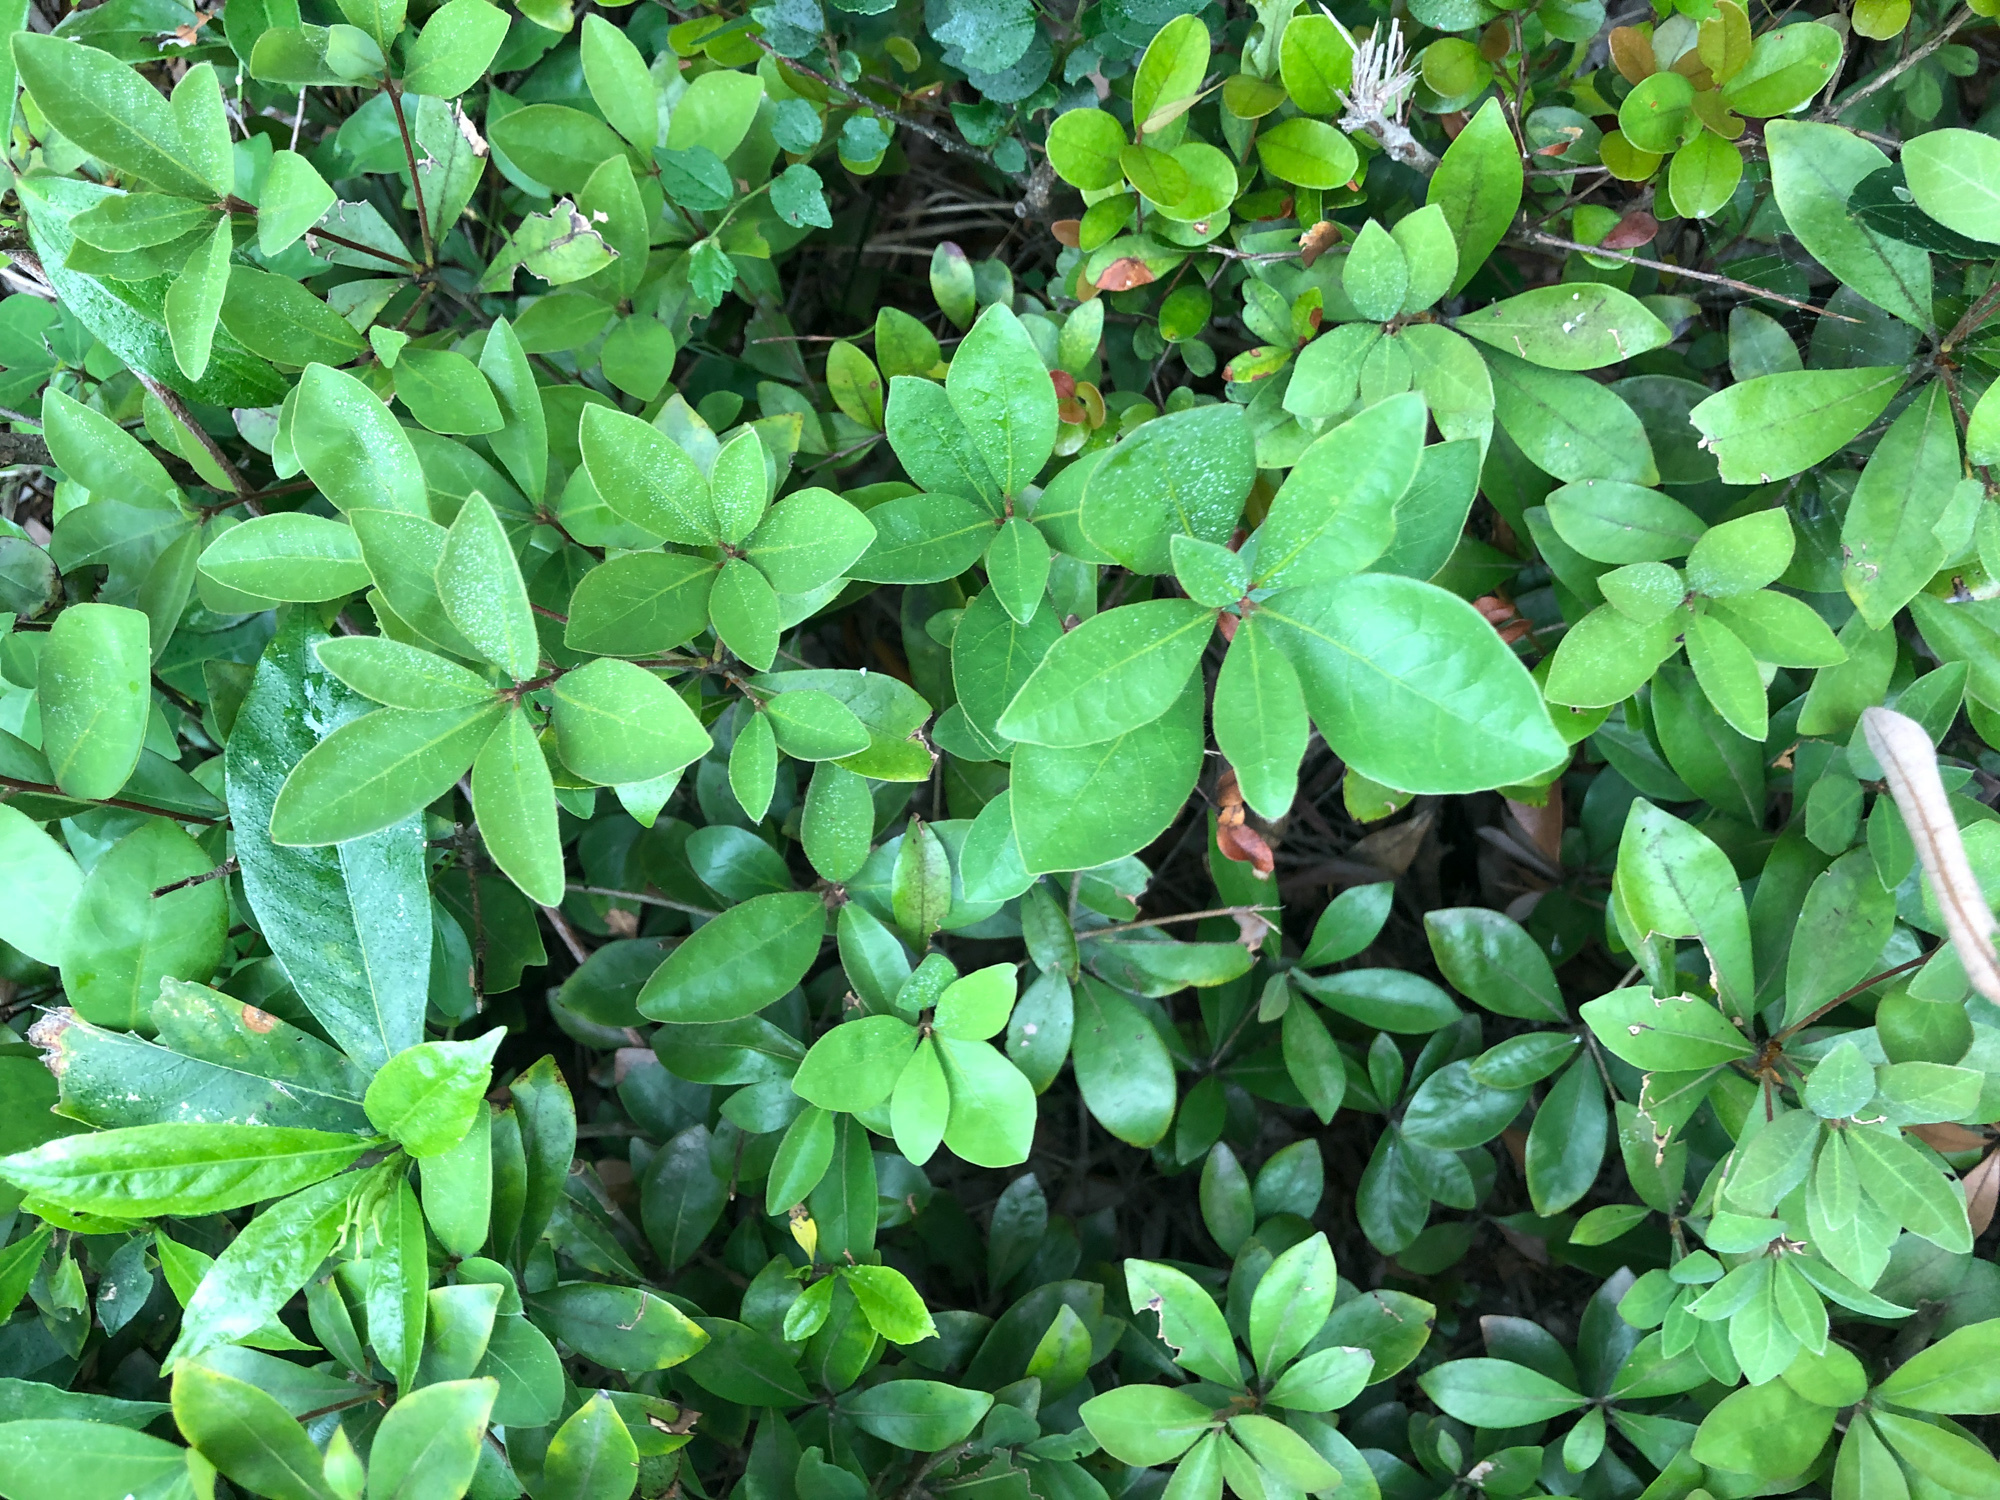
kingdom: Plantae
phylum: Tracheophyta
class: Magnoliopsida
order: Laurales
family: Lauraceae
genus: Litsea
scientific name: Litsea rotundifolia
